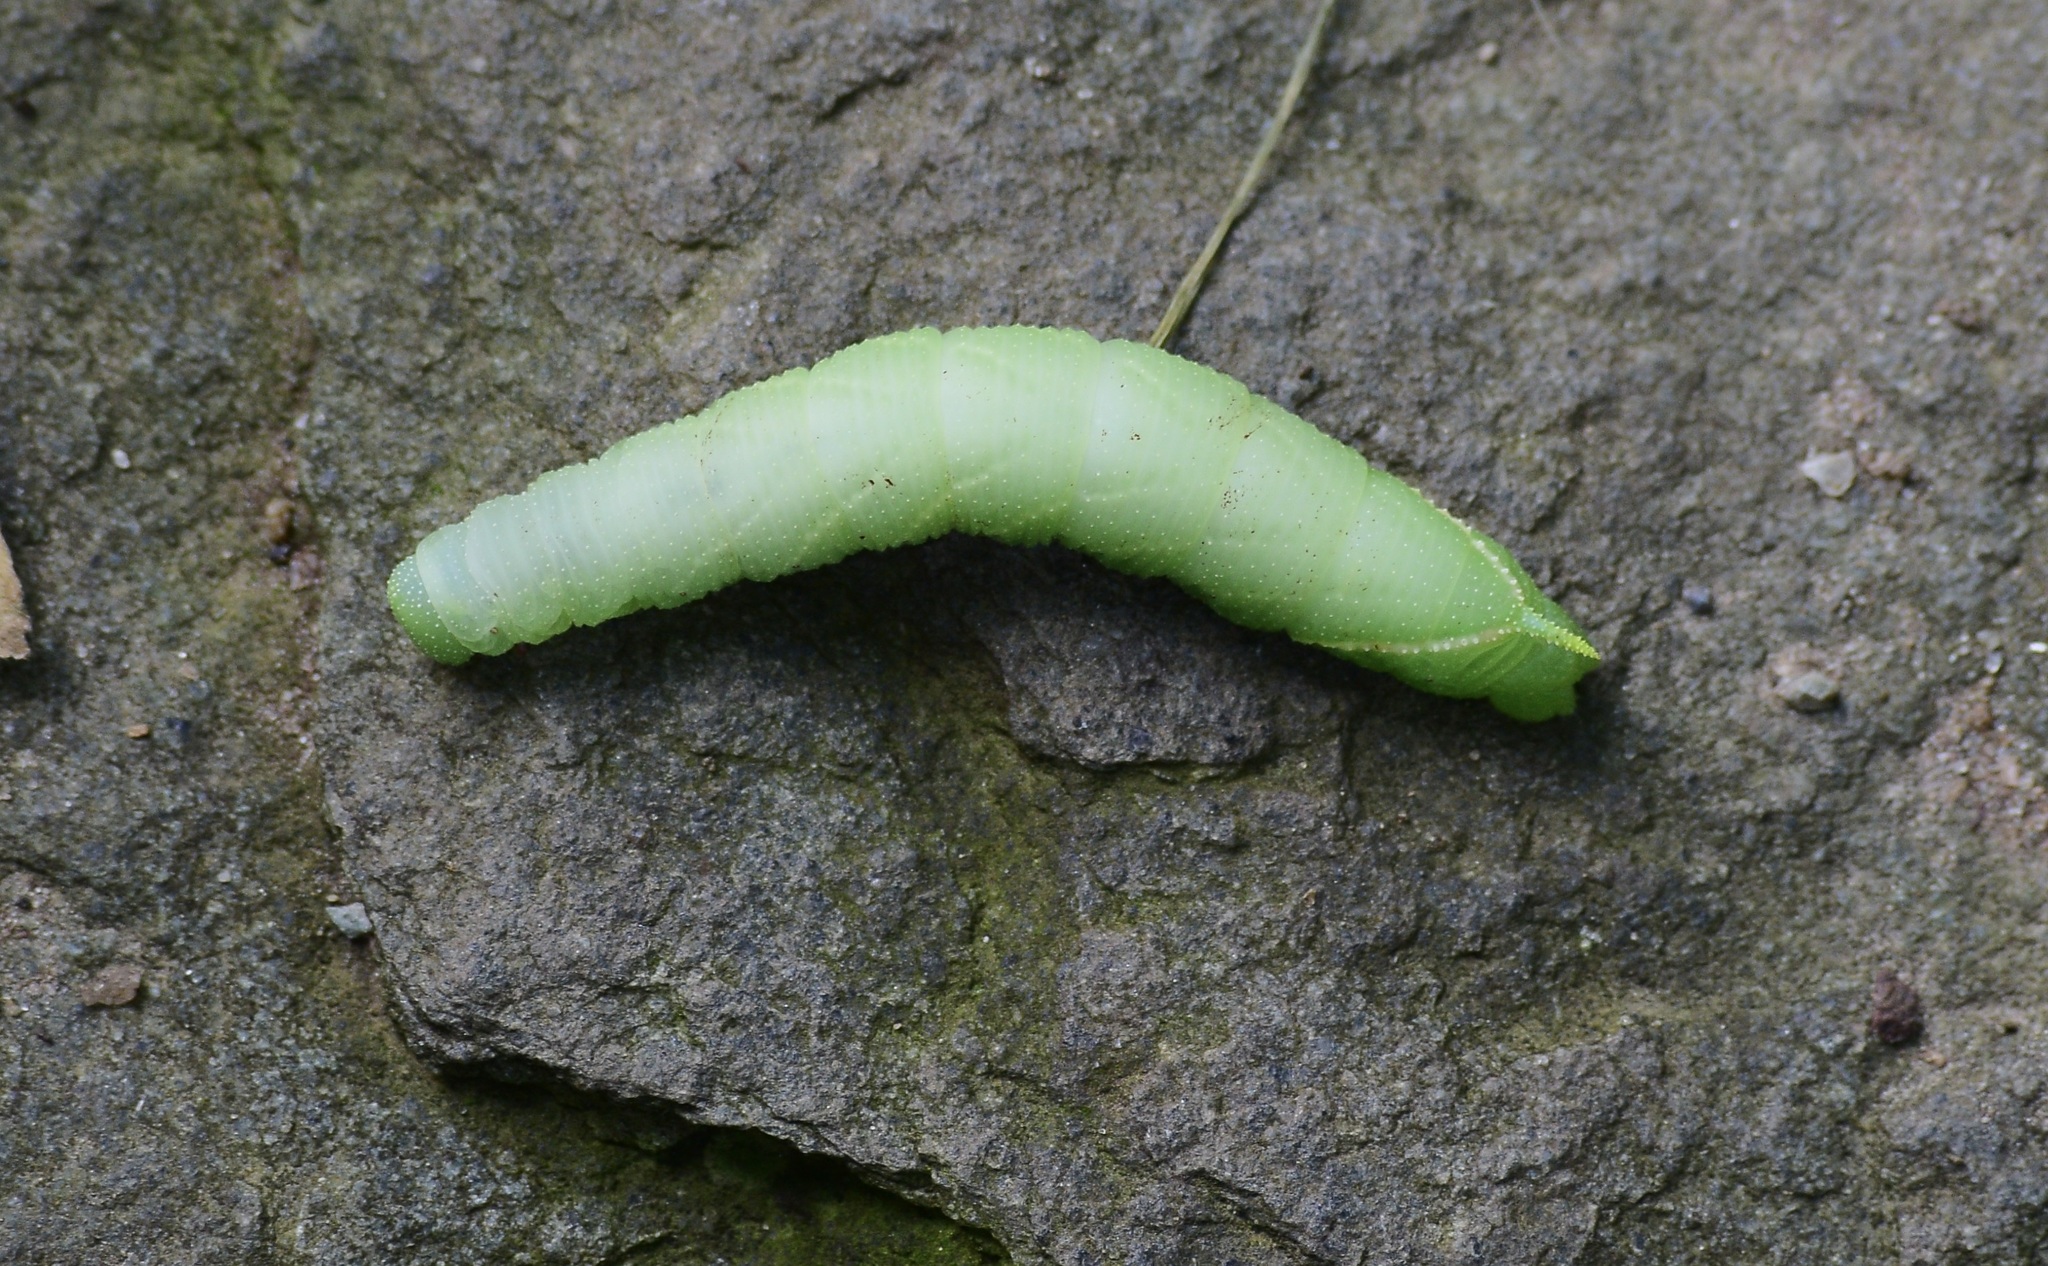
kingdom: Animalia
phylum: Arthropoda
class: Insecta
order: Lepidoptera
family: Sphingidae
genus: Paonias
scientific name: Paonias myops
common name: Small-eyed sphinx
